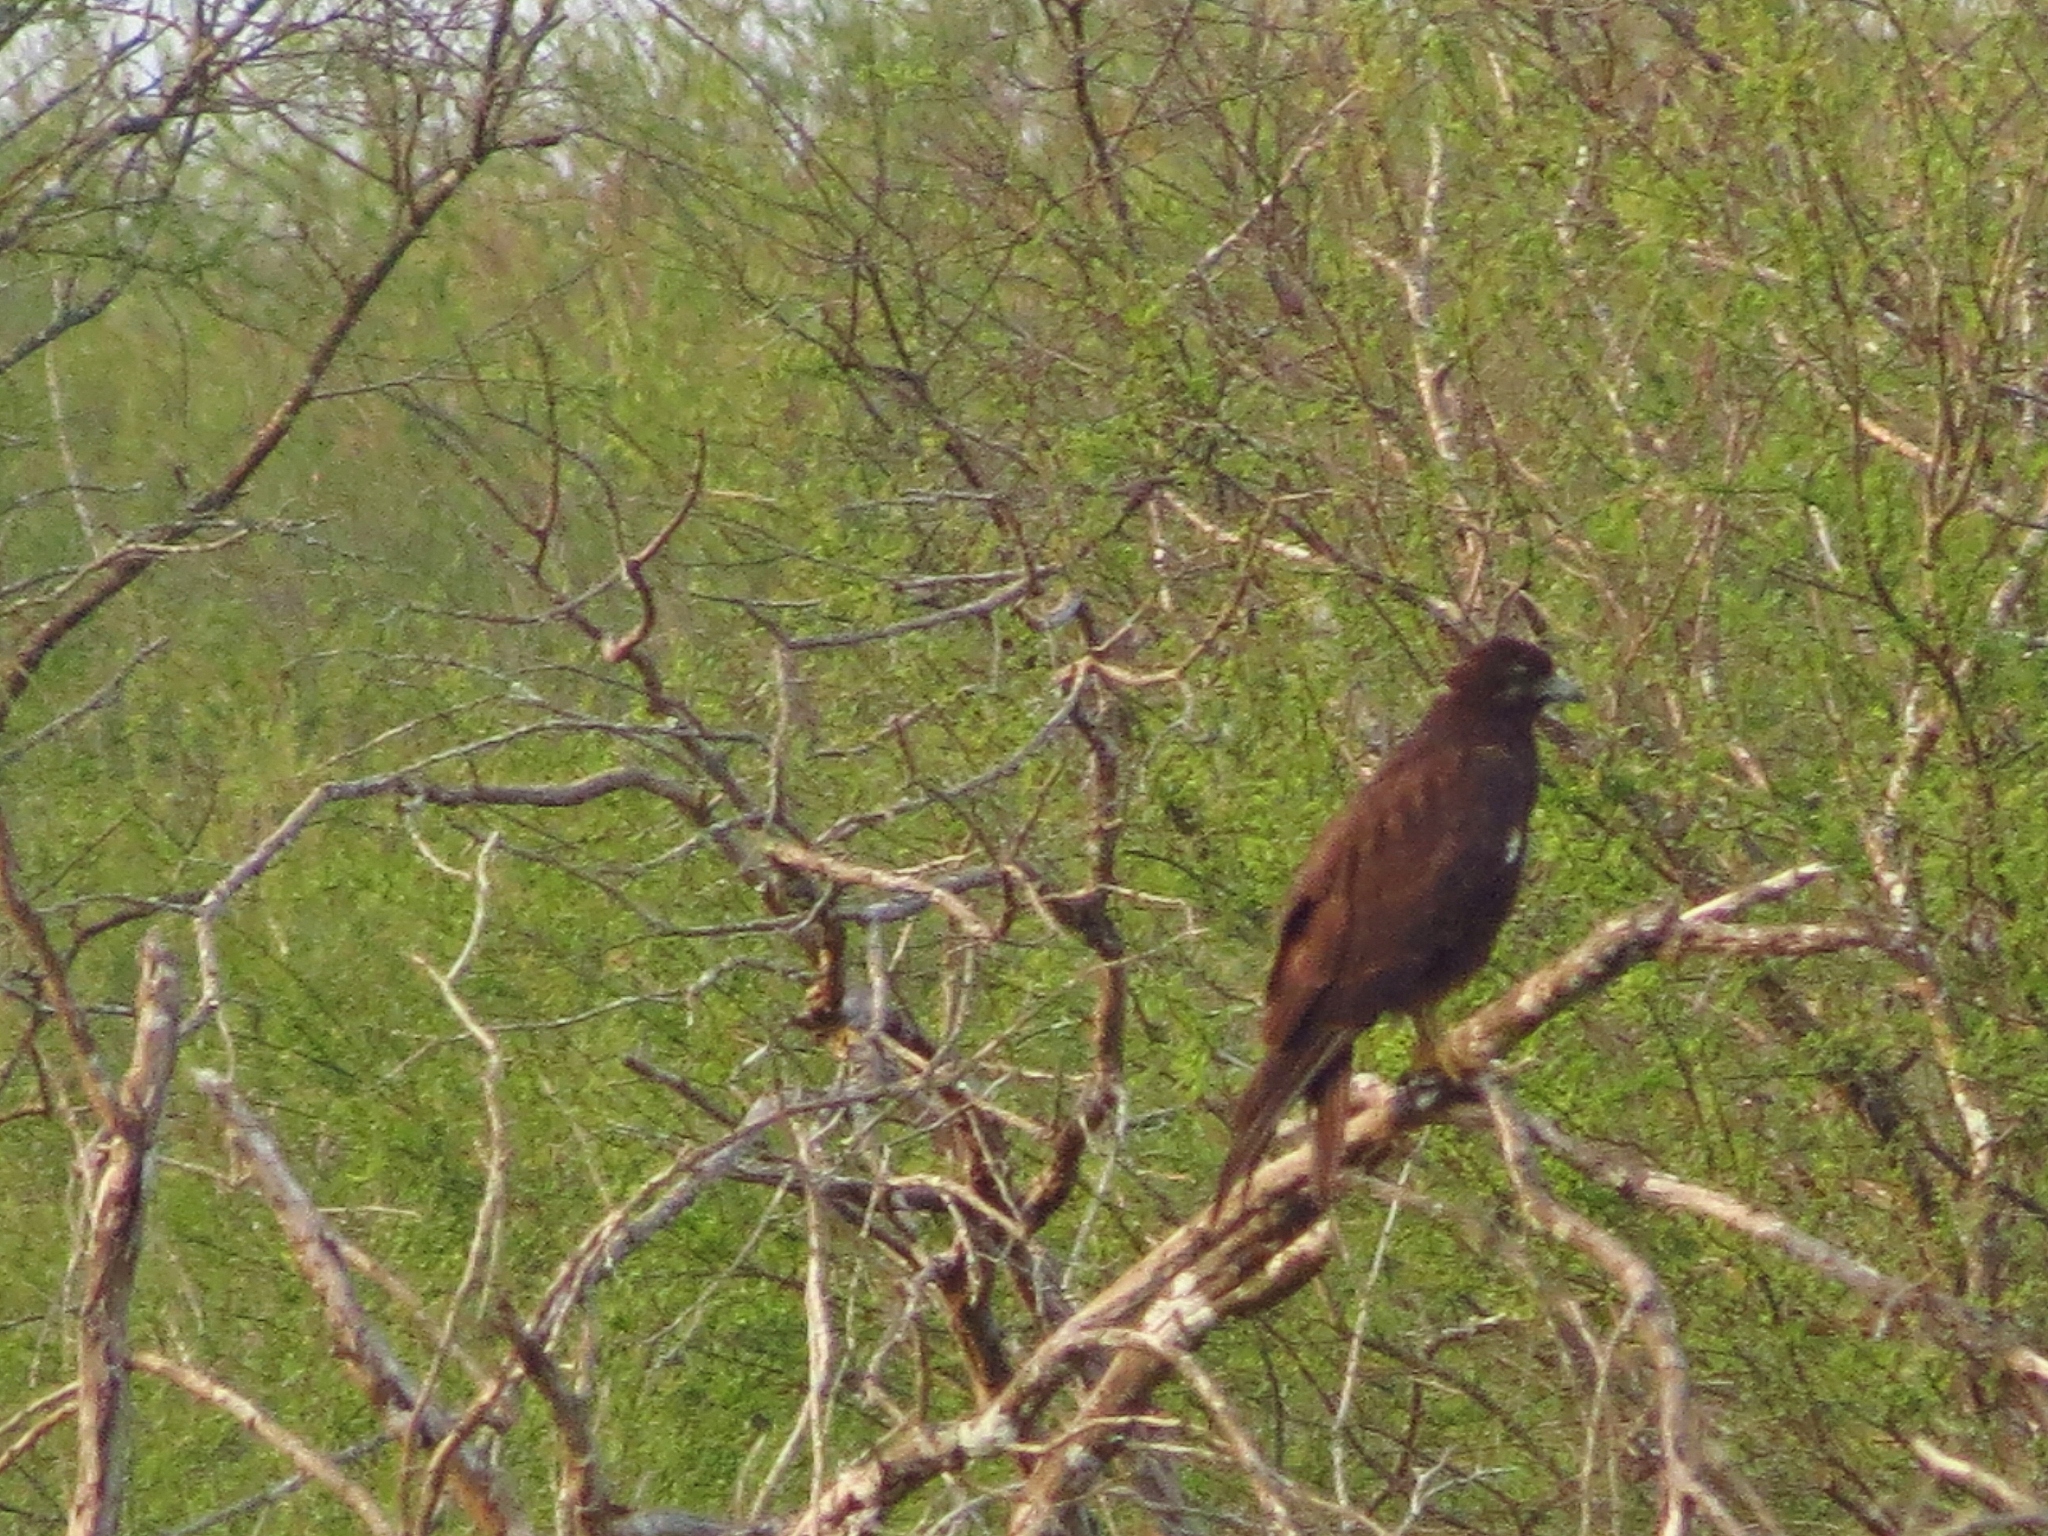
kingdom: Animalia
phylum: Chordata
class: Aves
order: Accipitriformes
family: Accipitridae
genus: Buteo
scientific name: Buteo albicaudatus
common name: White-tailed hawk
